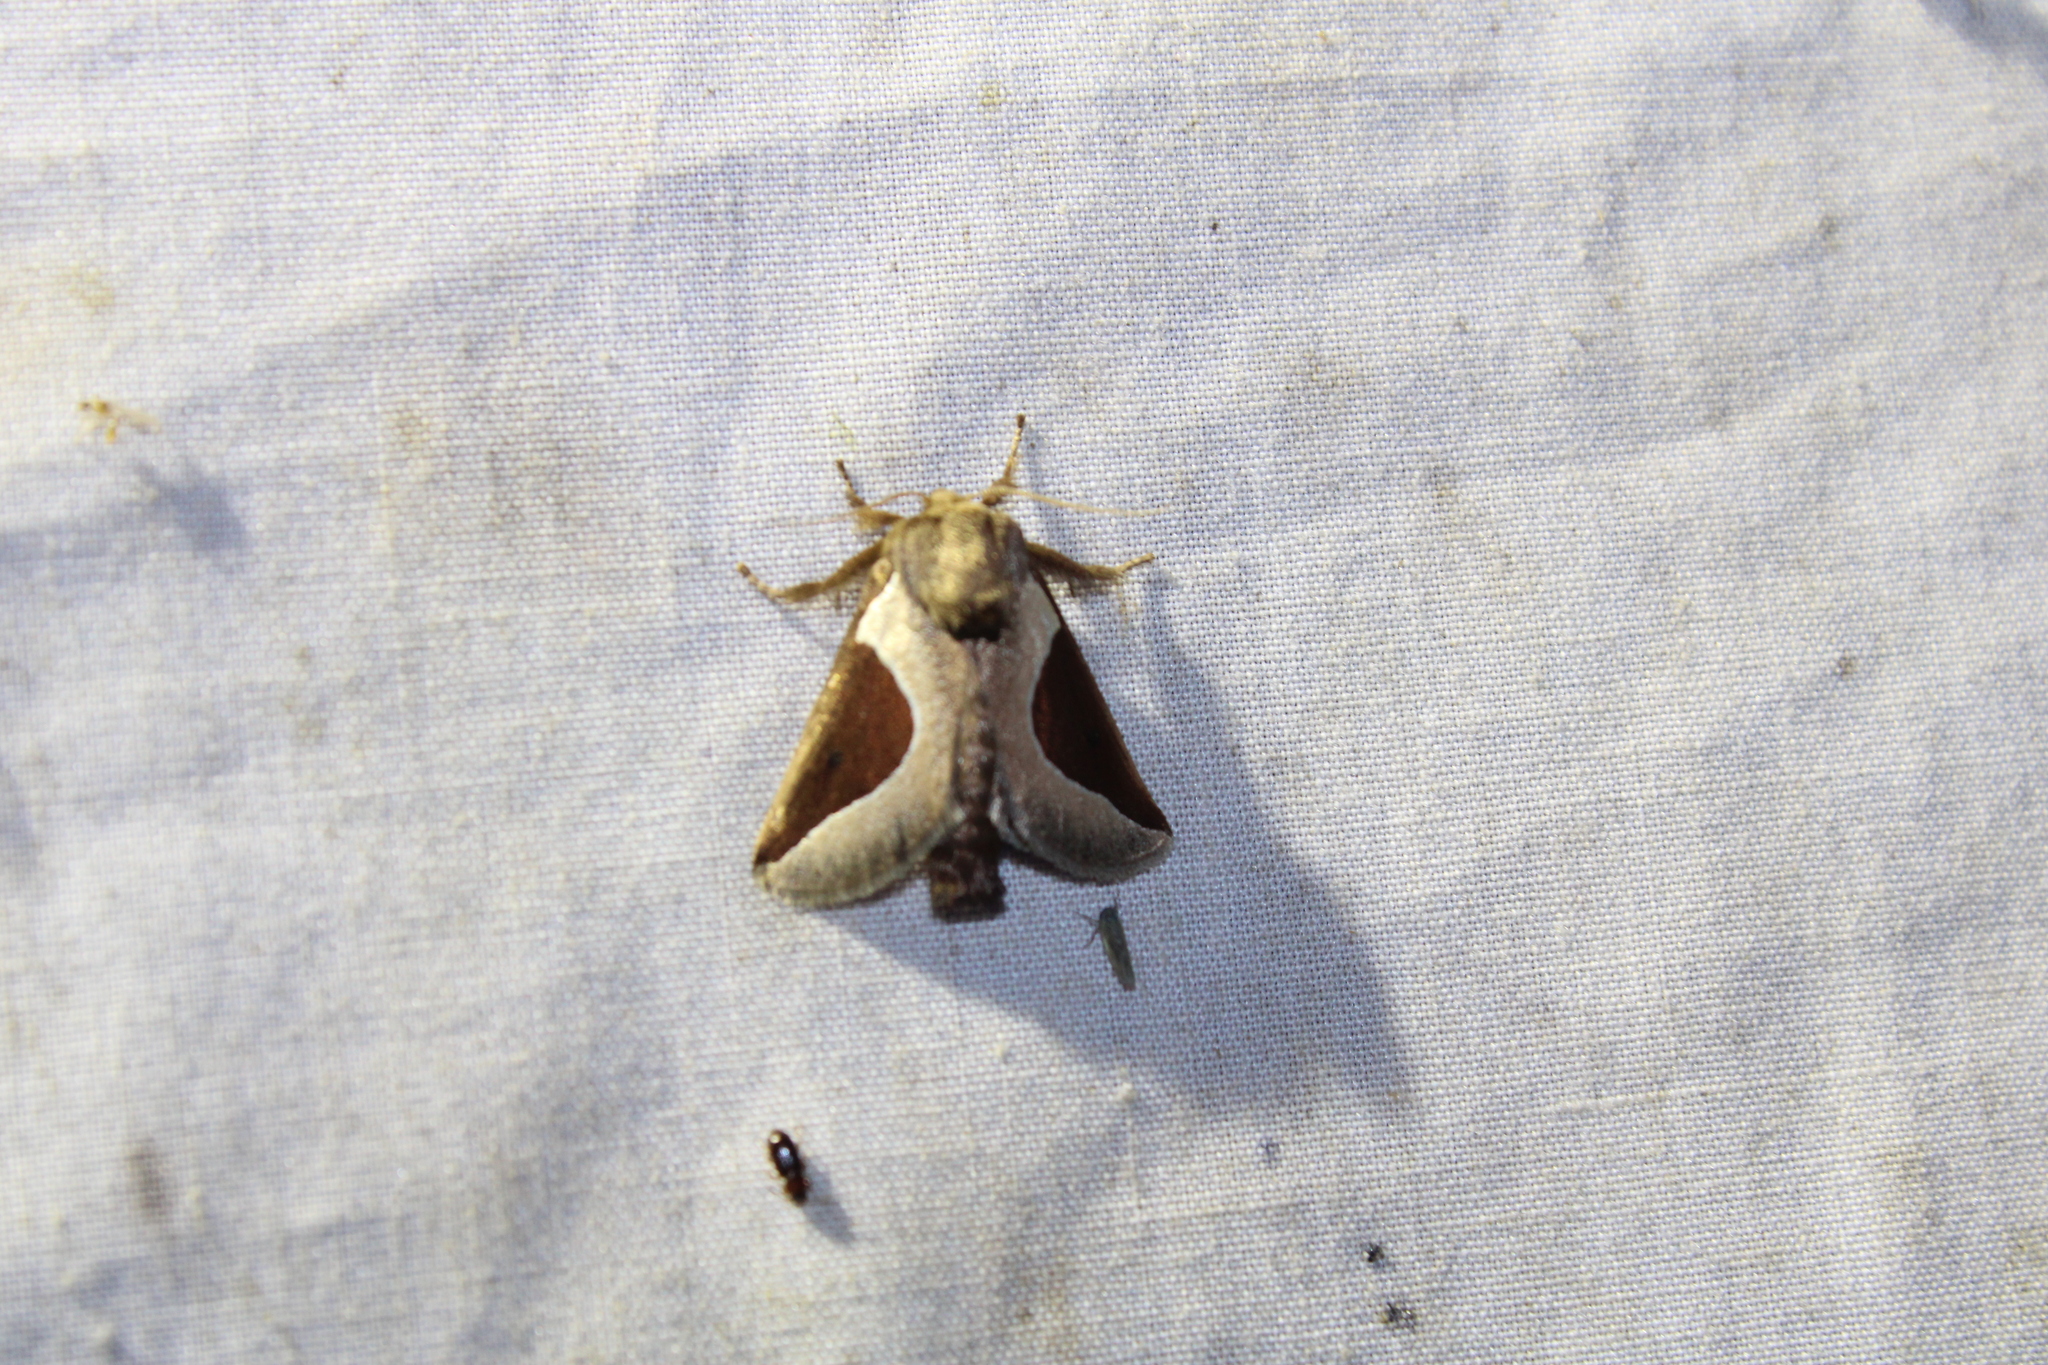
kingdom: Animalia
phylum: Arthropoda
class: Insecta
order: Lepidoptera
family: Limacodidae
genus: Prolimacodes
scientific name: Prolimacodes badia
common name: Skiff moth
